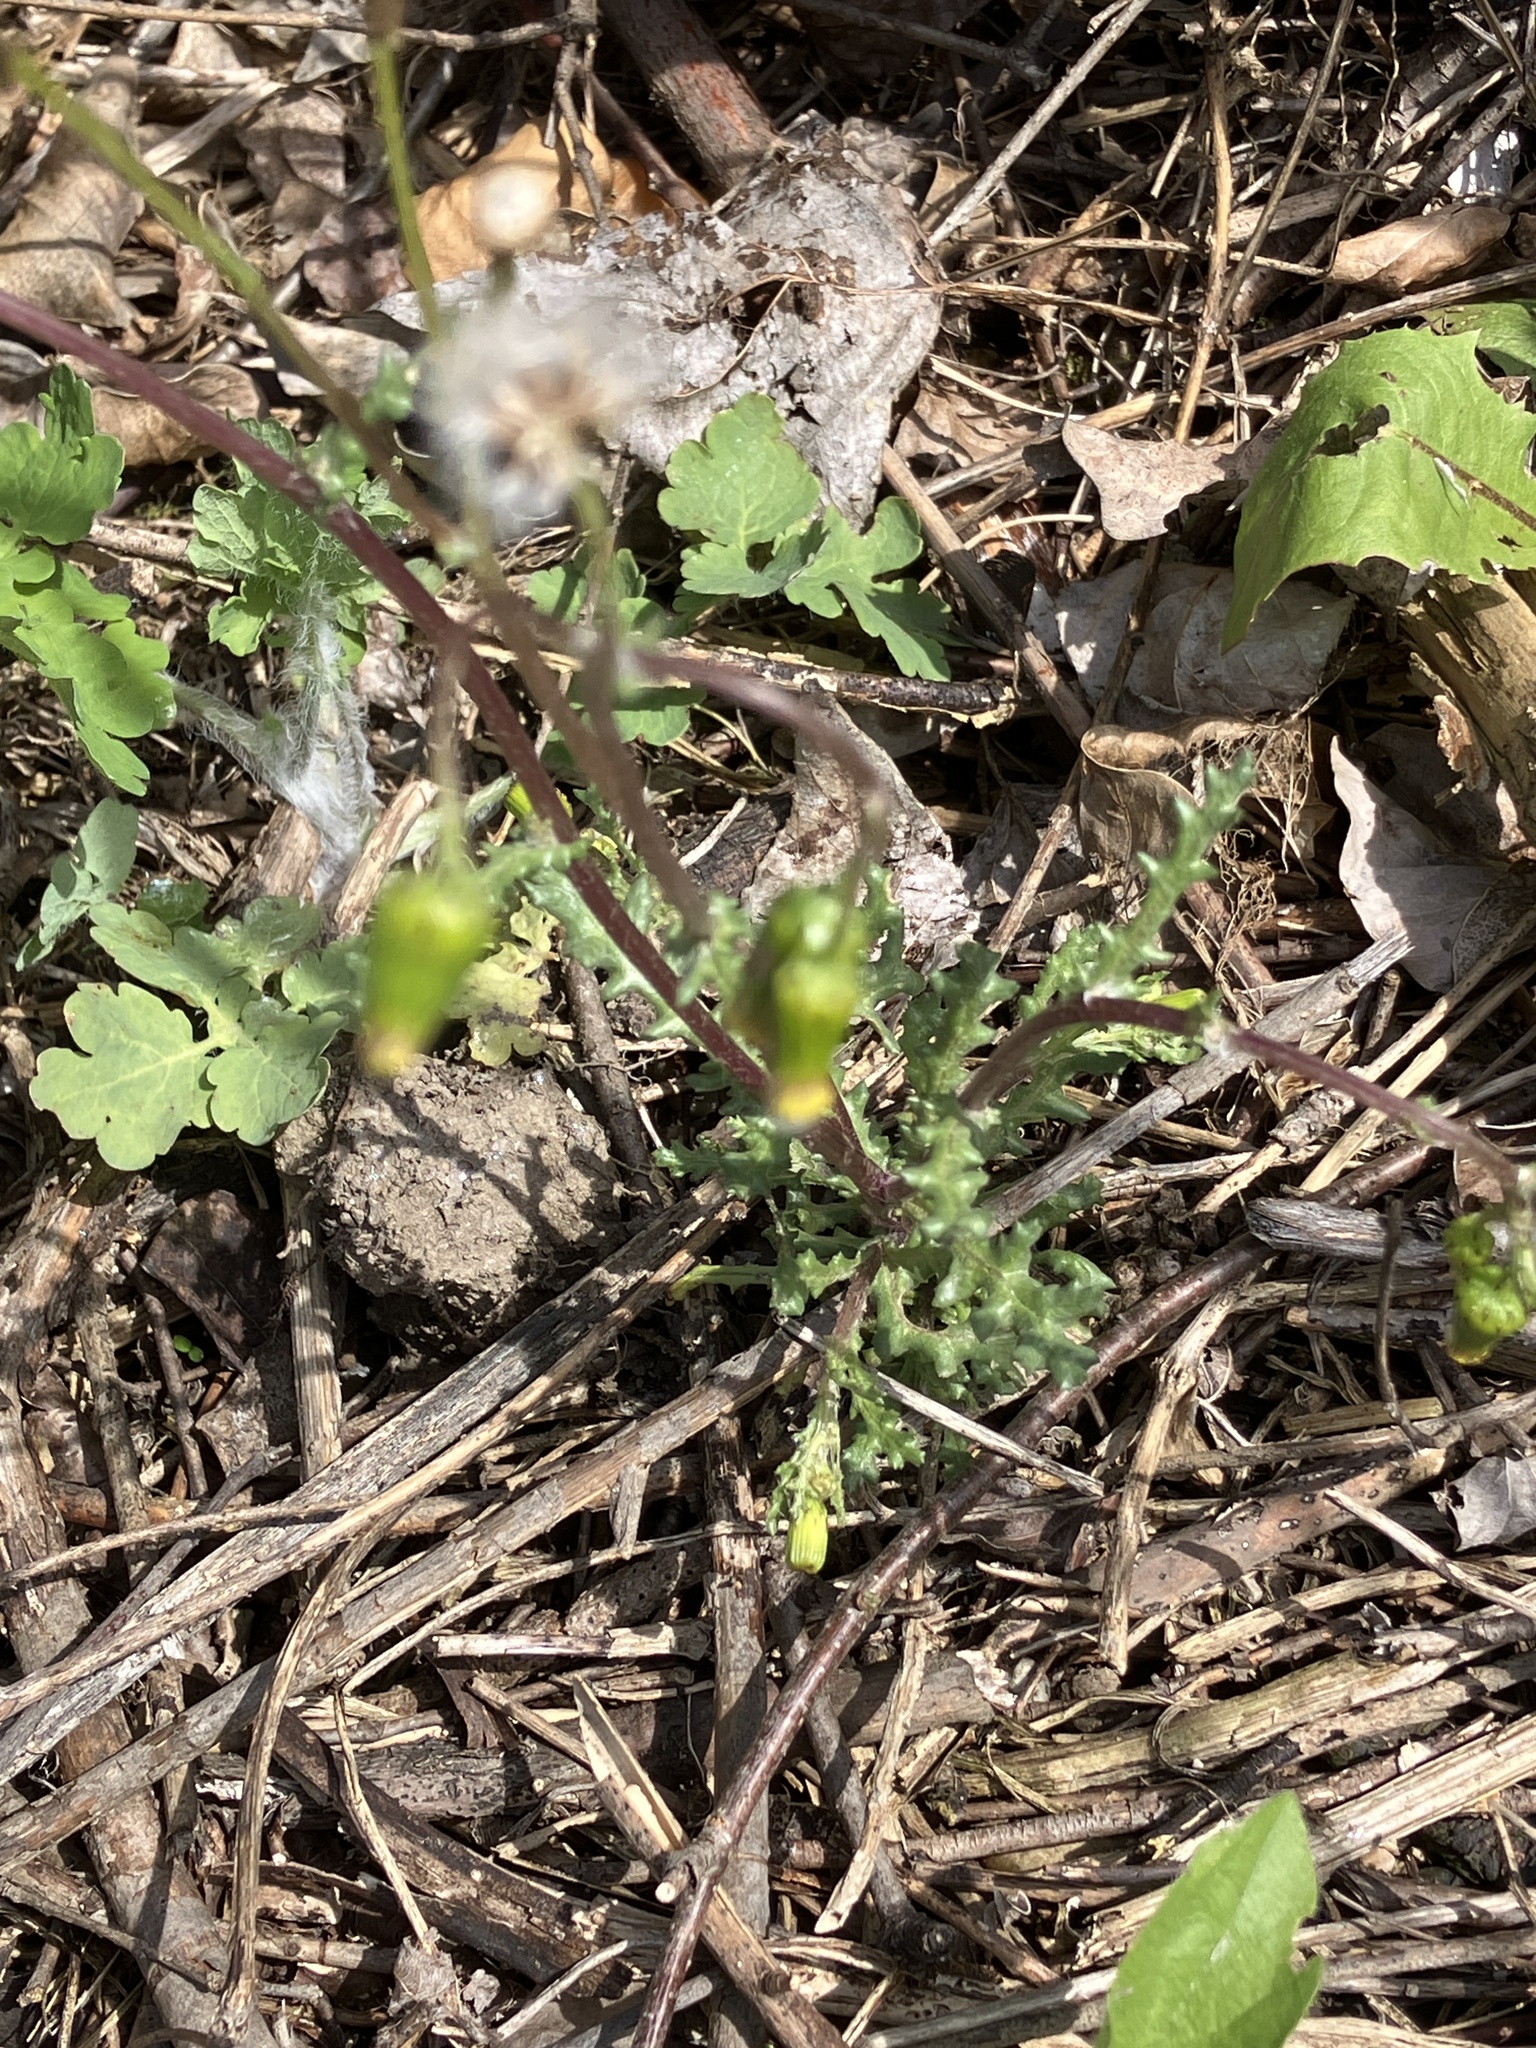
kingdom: Plantae
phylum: Tracheophyta
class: Magnoliopsida
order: Asterales
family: Asteraceae
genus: Senecio
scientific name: Senecio vulgaris
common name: Old-man-in-the-spring
